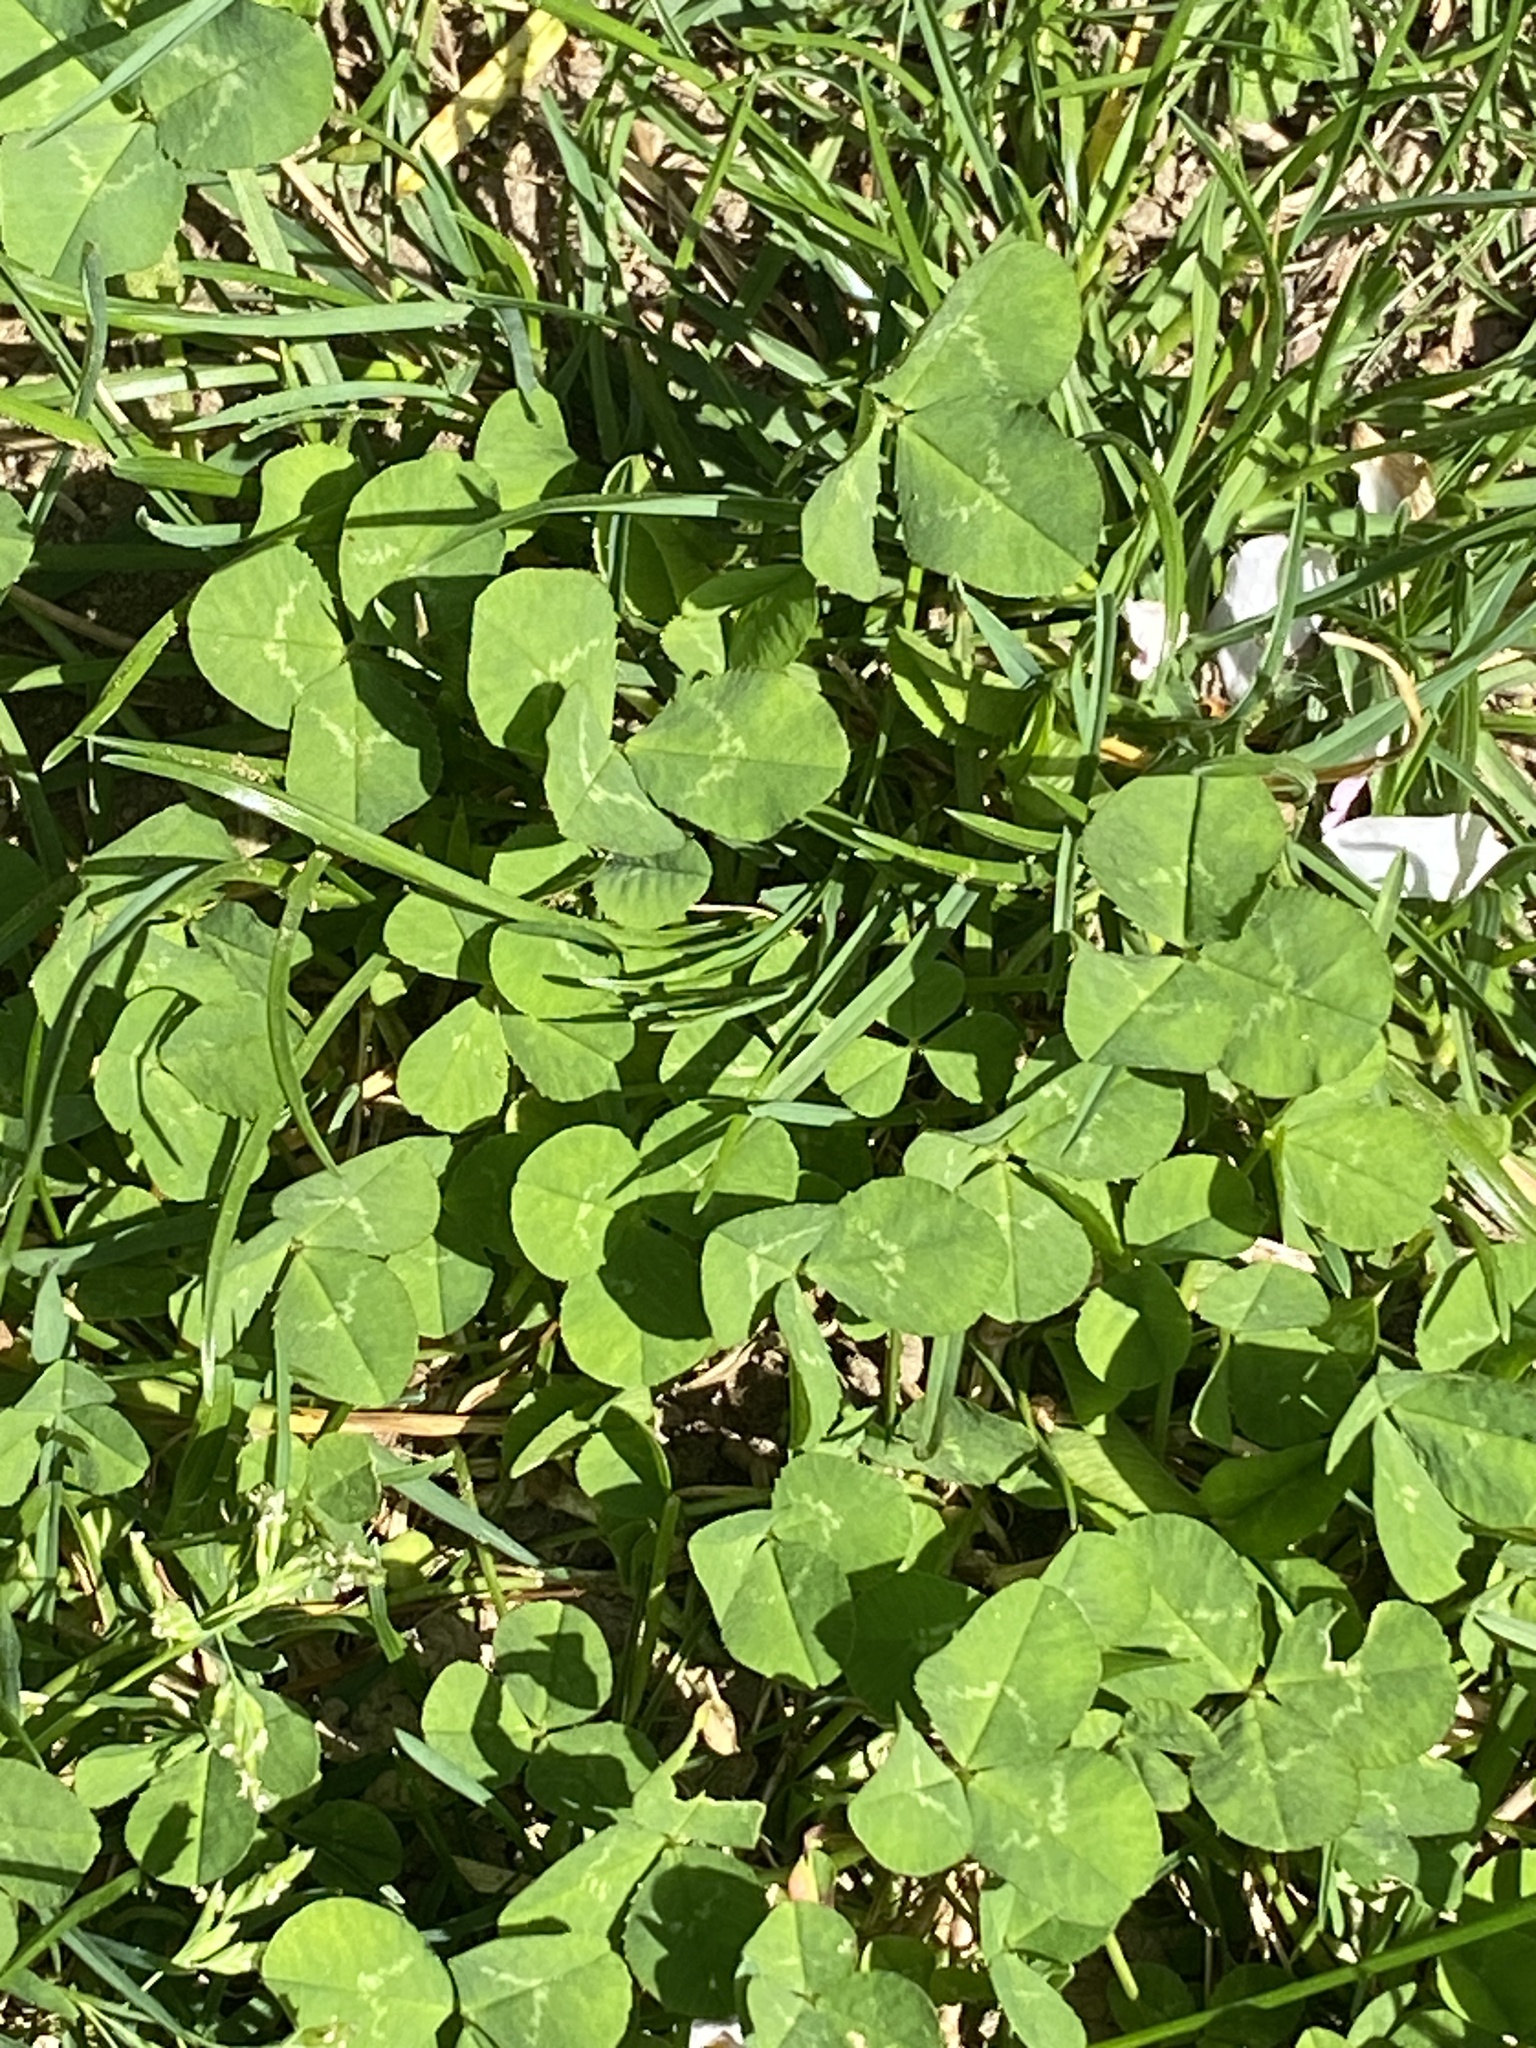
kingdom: Plantae
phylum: Tracheophyta
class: Magnoliopsida
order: Fabales
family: Fabaceae
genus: Trifolium
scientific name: Trifolium repens
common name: White clover
